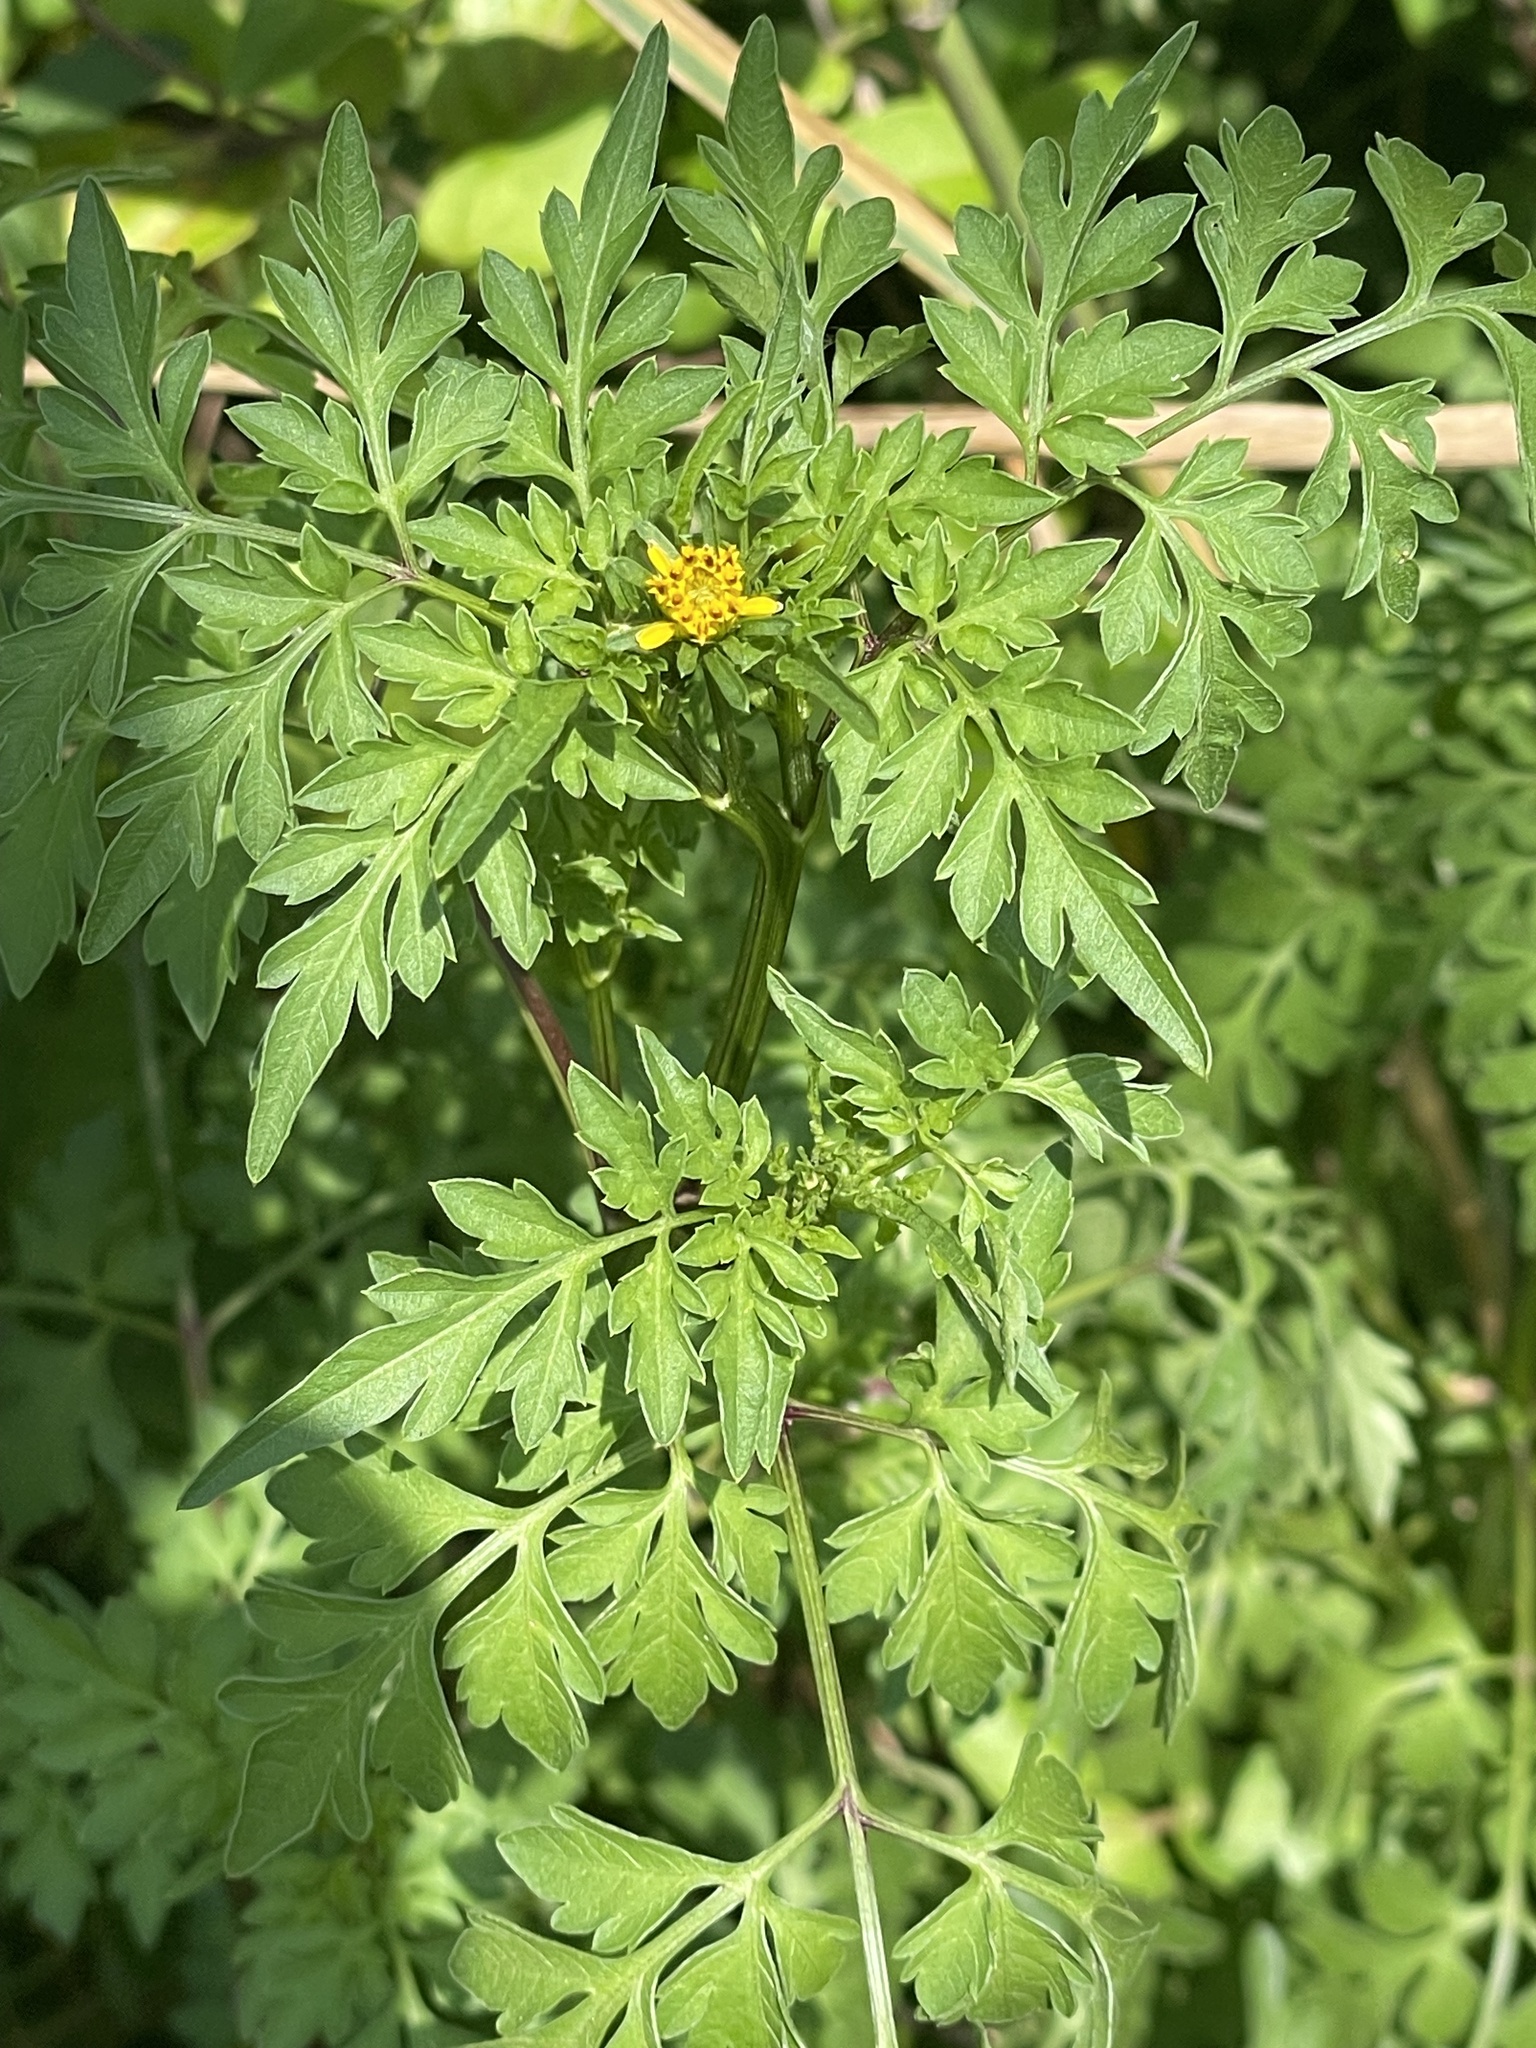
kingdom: Plantae
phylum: Tracheophyta
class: Magnoliopsida
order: Asterales
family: Asteraceae
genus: Bidens
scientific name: Bidens bipinnata
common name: Spanish-needles
